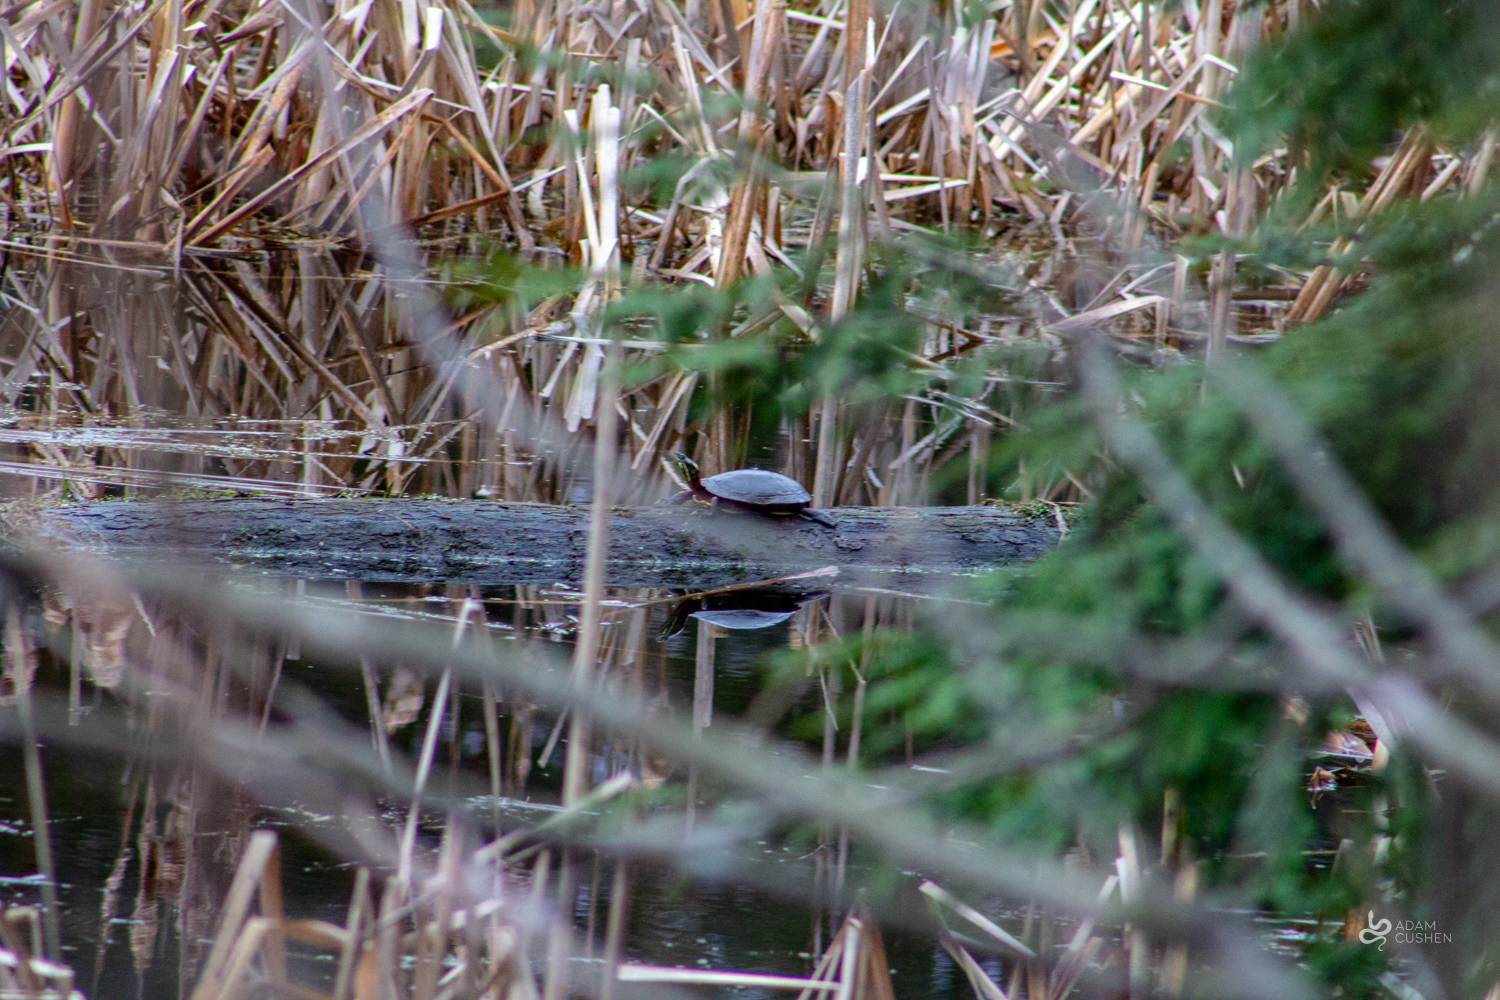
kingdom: Animalia
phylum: Chordata
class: Testudines
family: Emydidae
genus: Chrysemys
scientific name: Chrysemys picta
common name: Painted turtle
